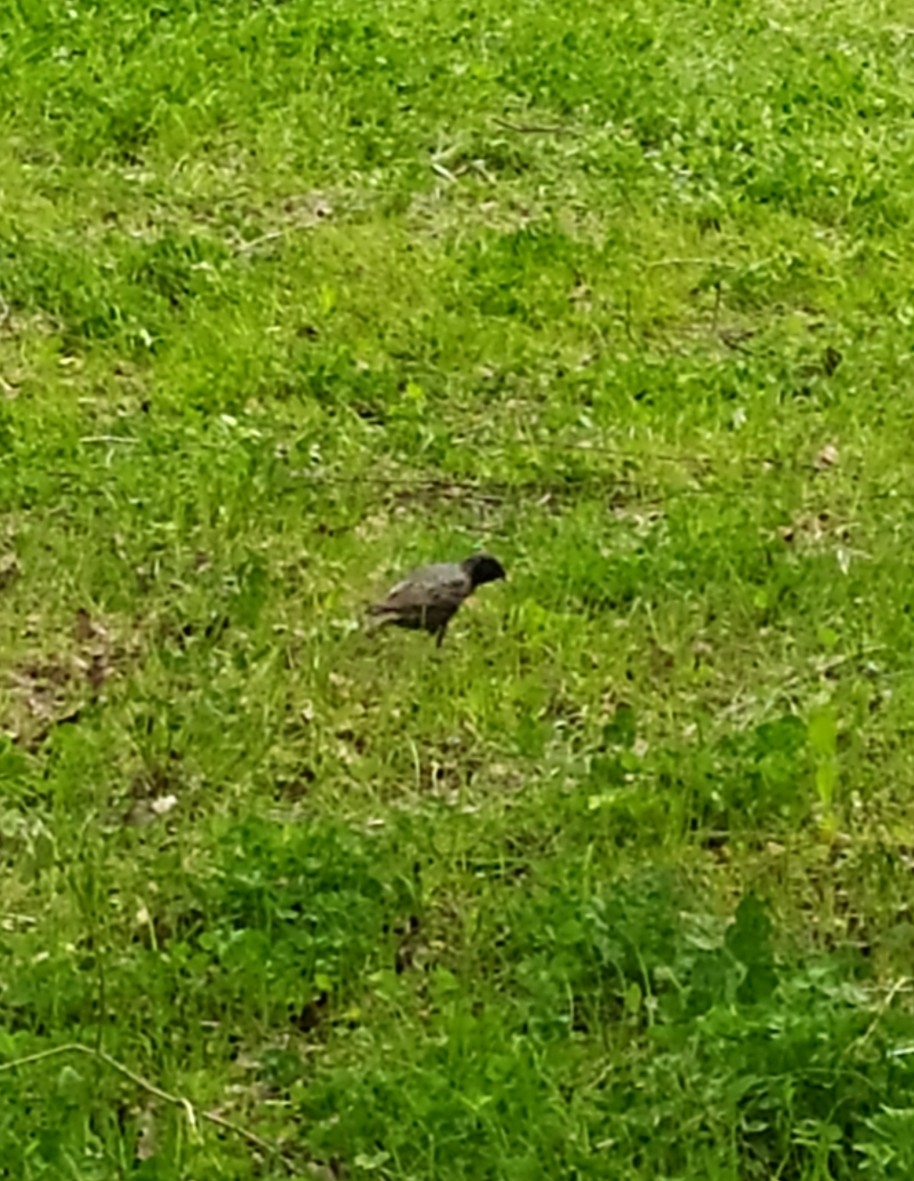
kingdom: Animalia
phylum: Chordata
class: Aves
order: Passeriformes
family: Sturnidae
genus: Sturnus
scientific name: Sturnus vulgaris
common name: Common starling
